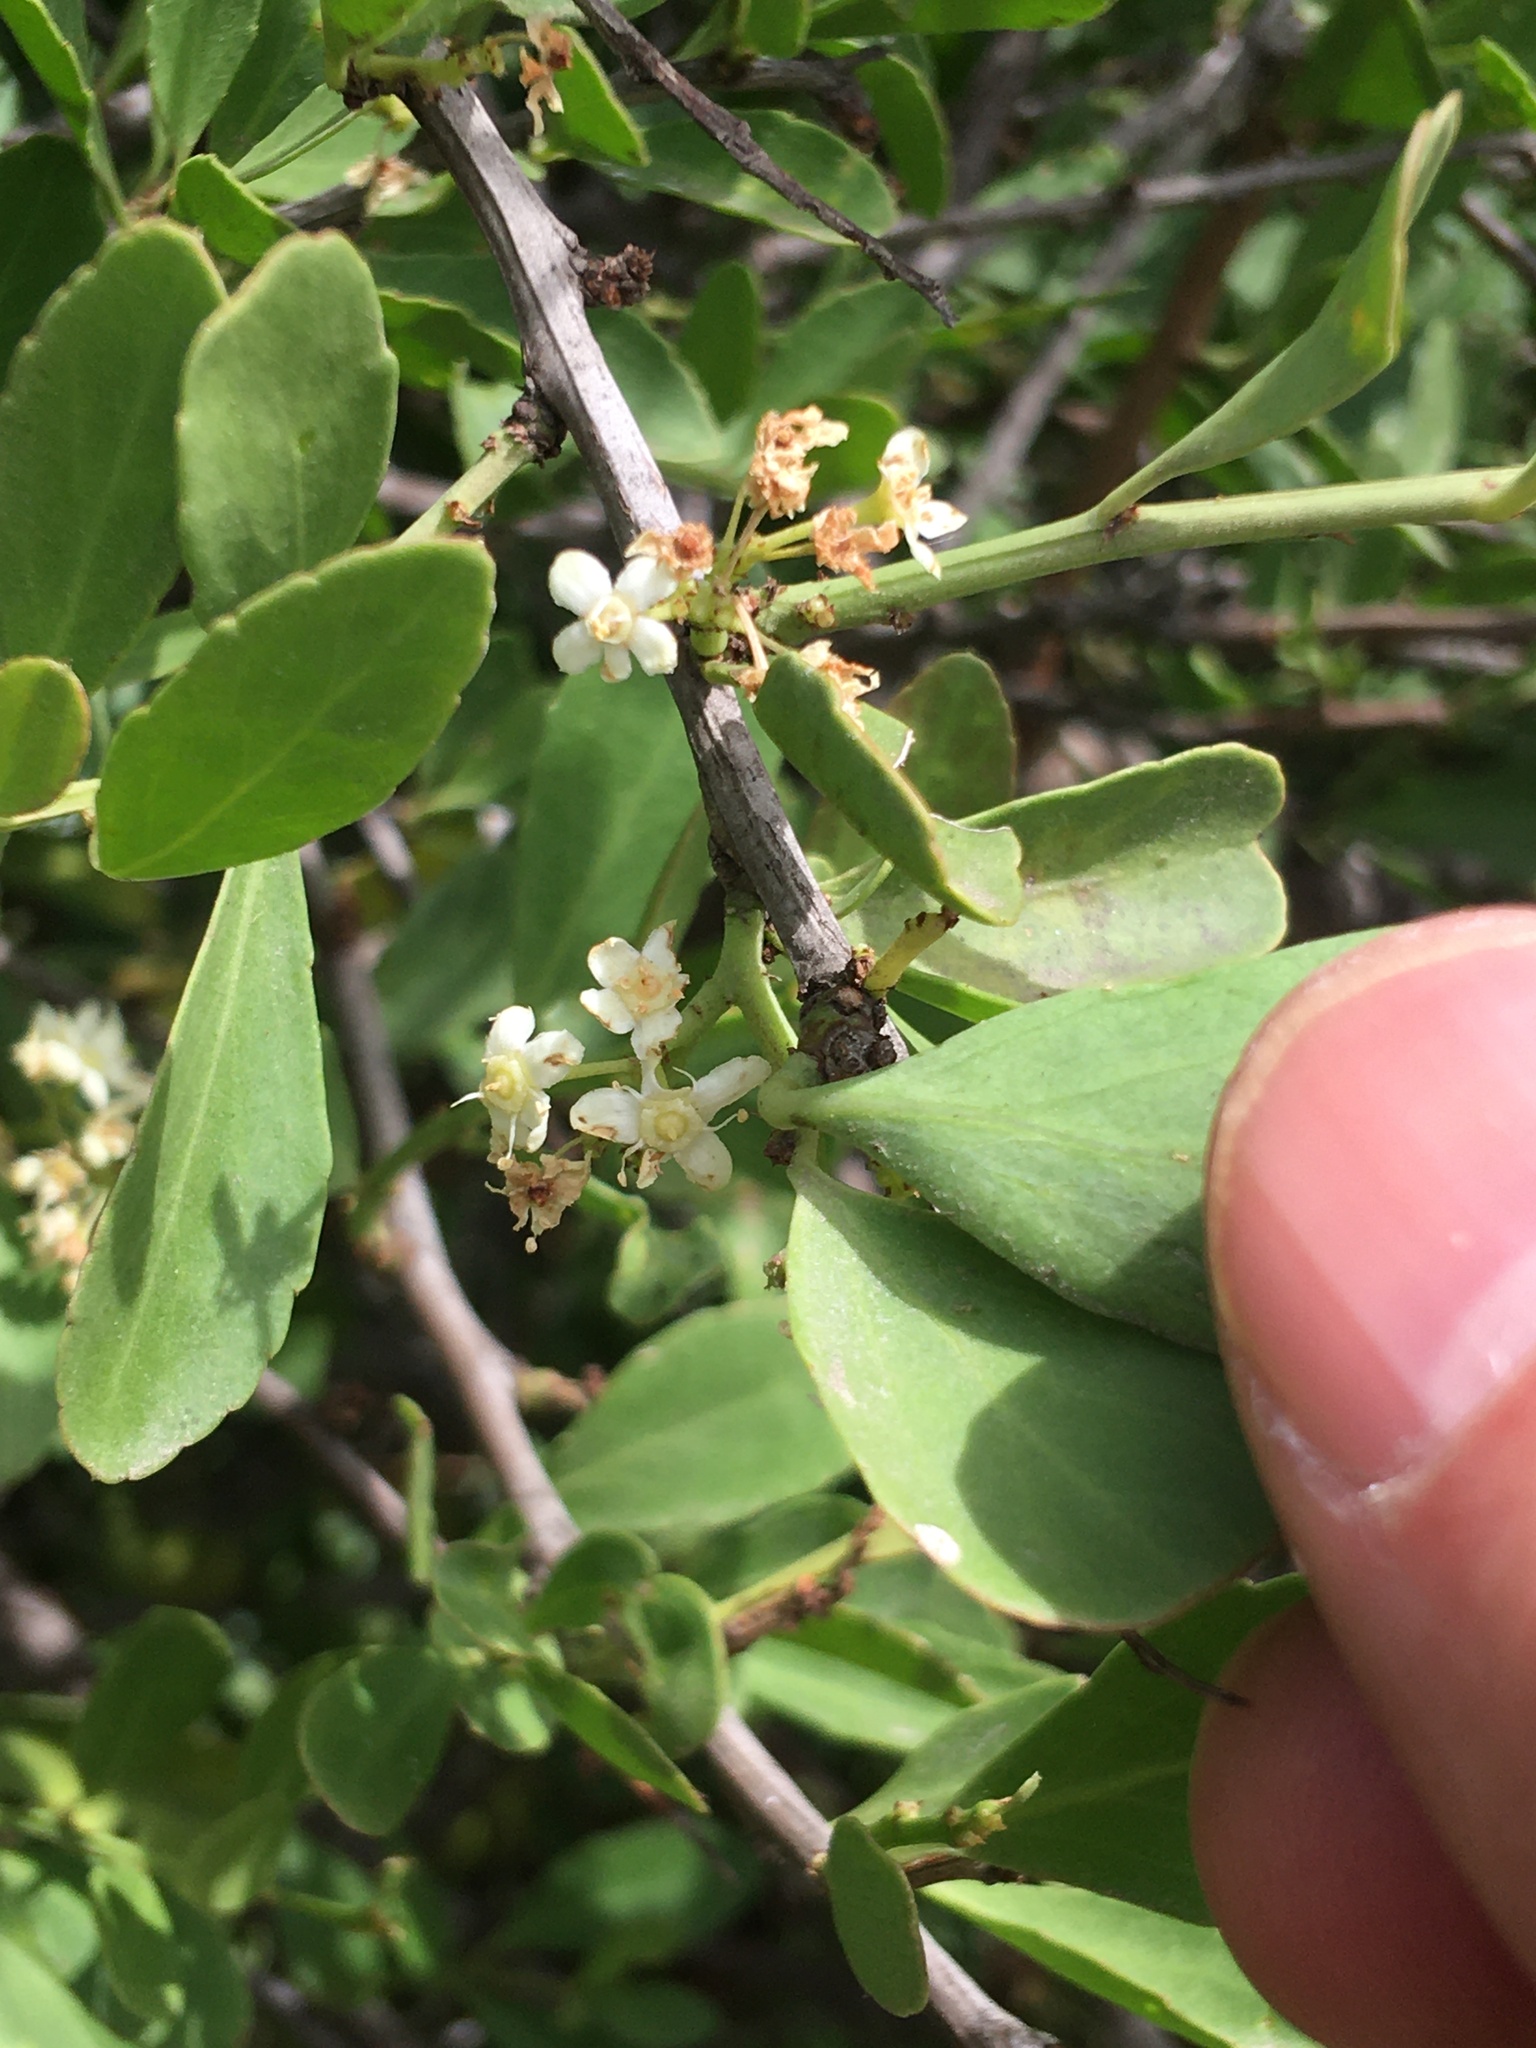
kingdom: Plantae
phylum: Tracheophyta
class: Magnoliopsida
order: Celastrales
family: Celastraceae
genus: Gymnosporia
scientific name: Gymnosporia buxifolia
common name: Common spike-thorn
